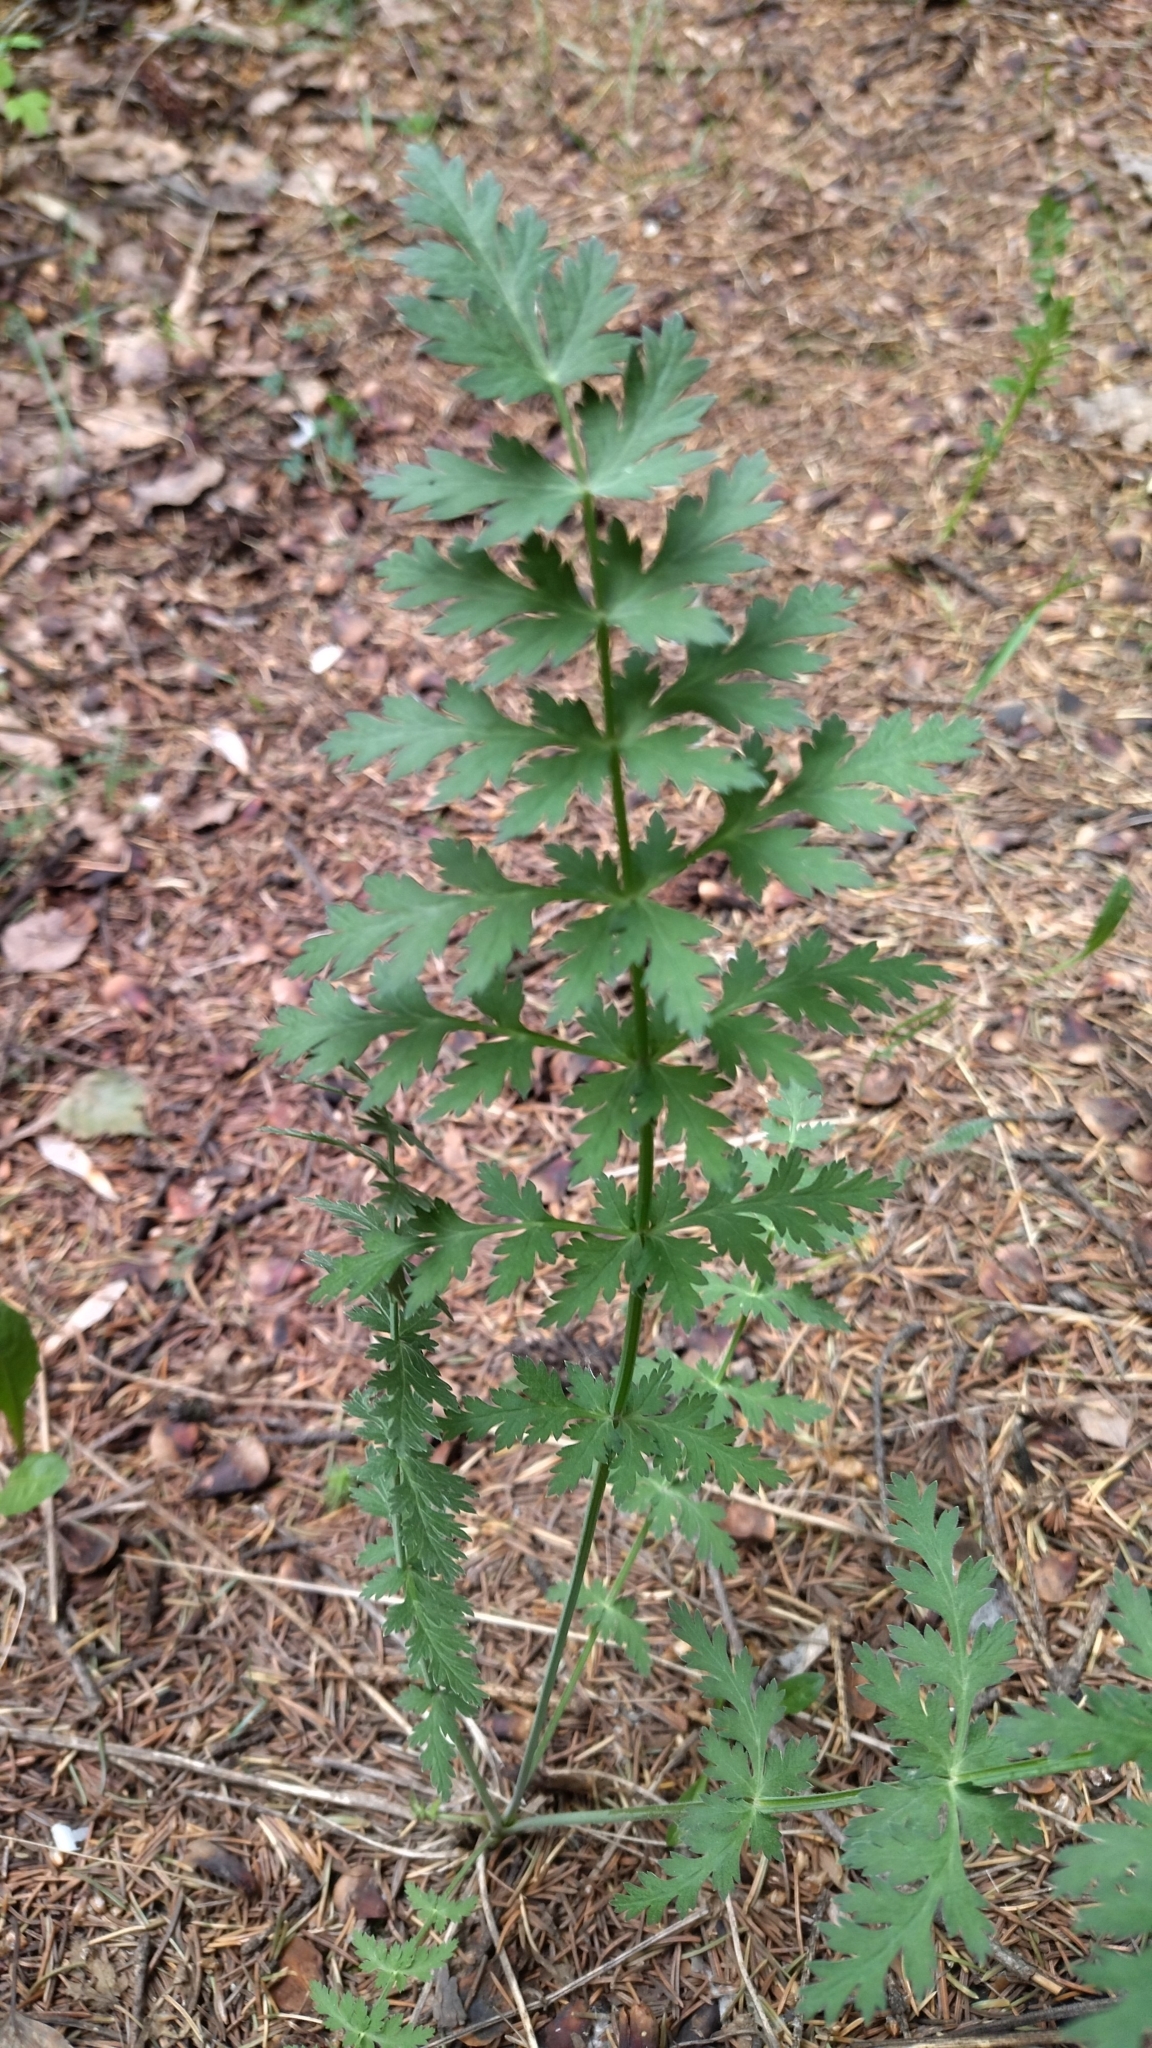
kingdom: Plantae
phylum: Tracheophyta
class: Magnoliopsida
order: Apiales
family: Apiaceae
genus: Seseli
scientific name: Seseli libanotis
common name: Mooncarrot
